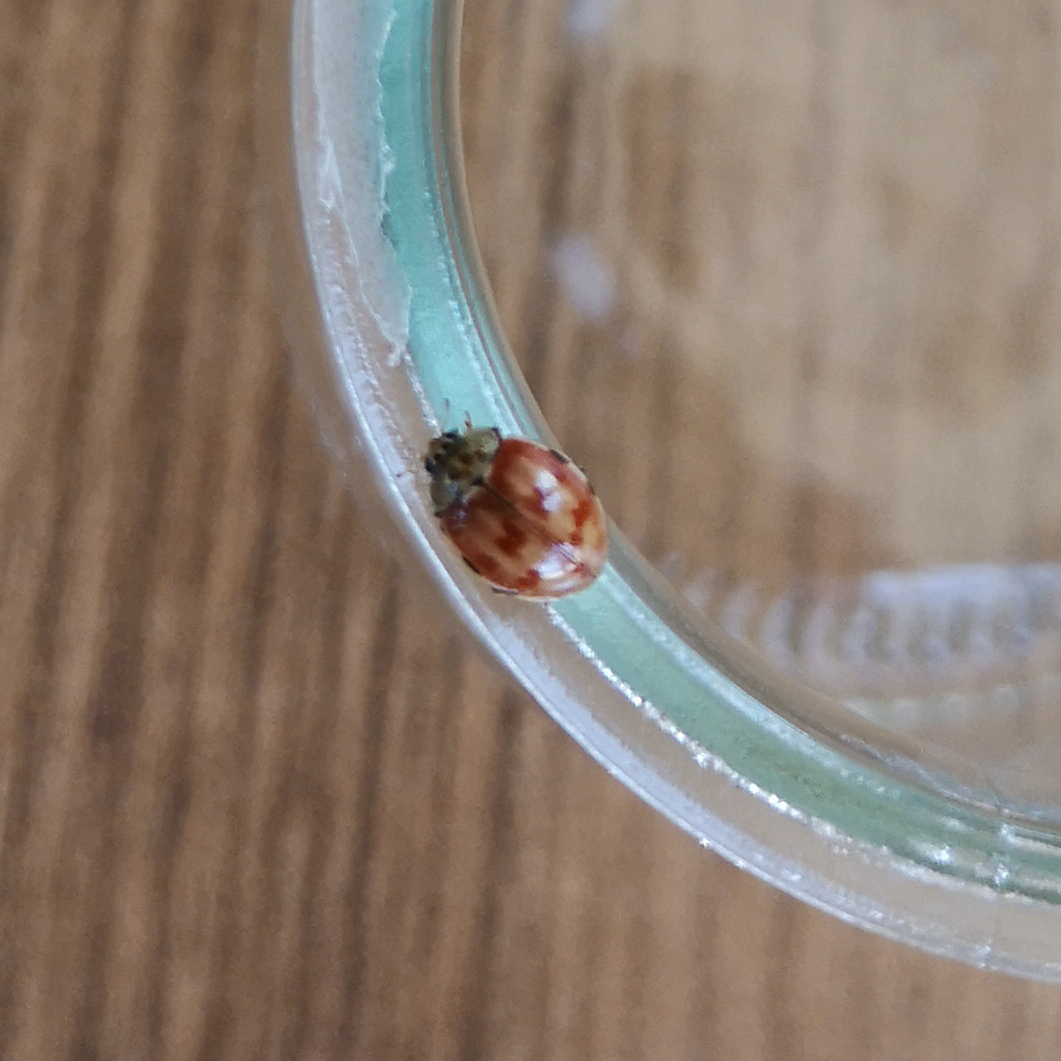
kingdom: Animalia
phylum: Arthropoda
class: Insecta
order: Coleoptera
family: Coccinellidae
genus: Harmonia
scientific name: Harmonia quadripunctata
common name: Cream-streaked ladybird
